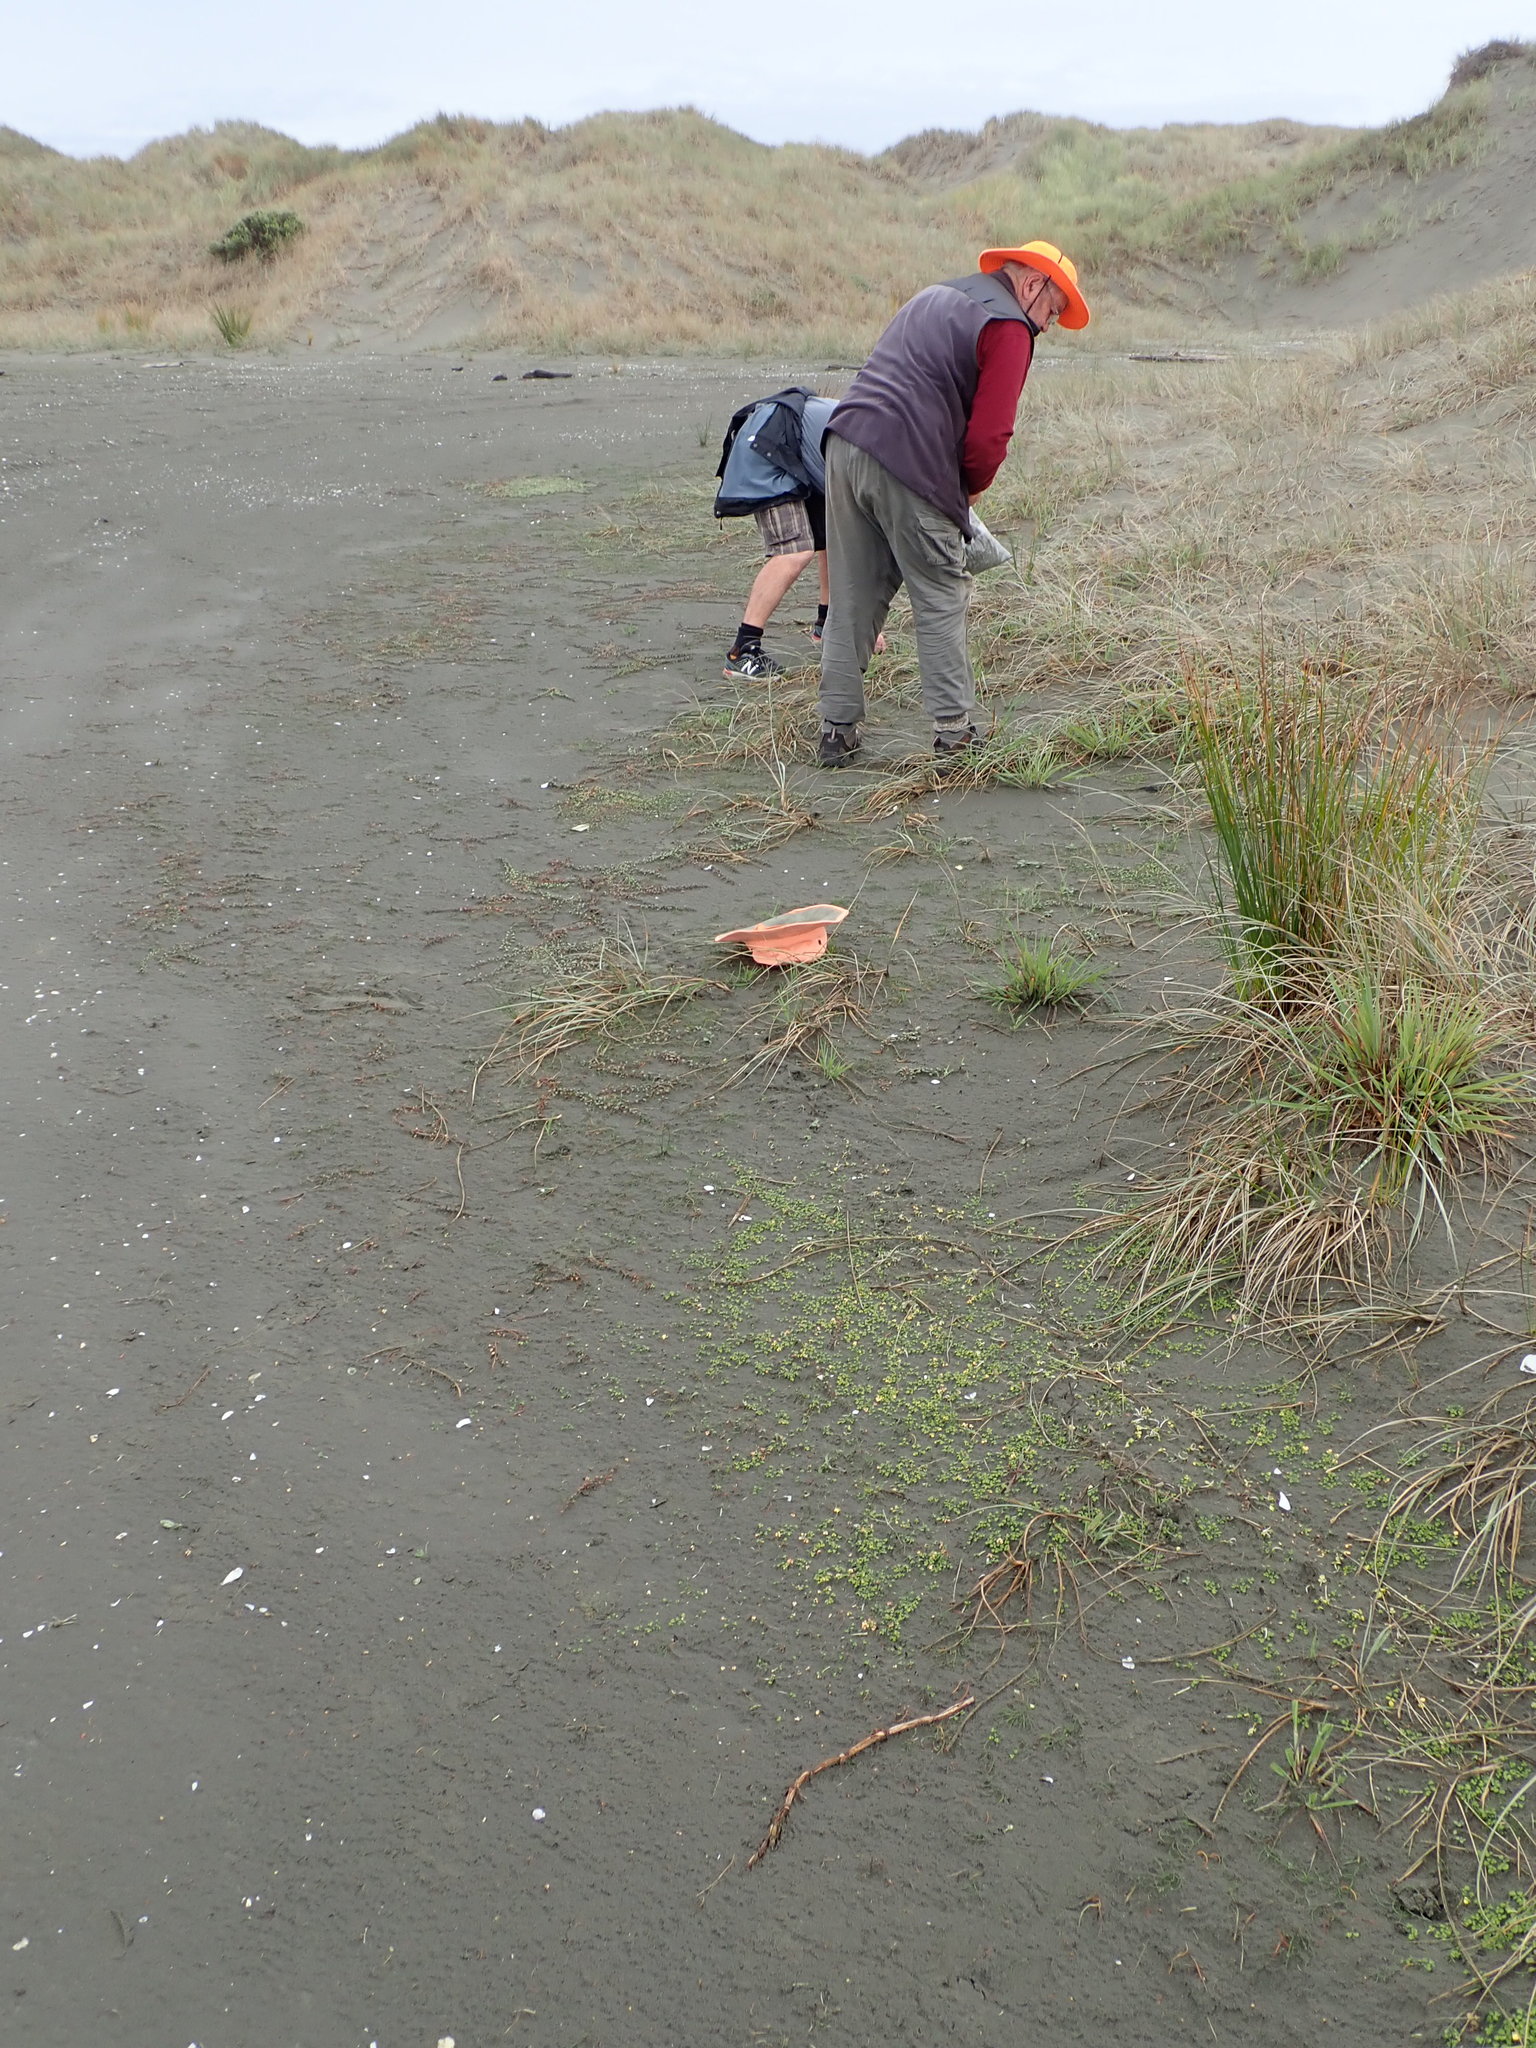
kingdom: Plantae
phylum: Tracheophyta
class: Liliopsida
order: Alismatales
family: Juncaginaceae
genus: Triglochin
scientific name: Triglochin striata
